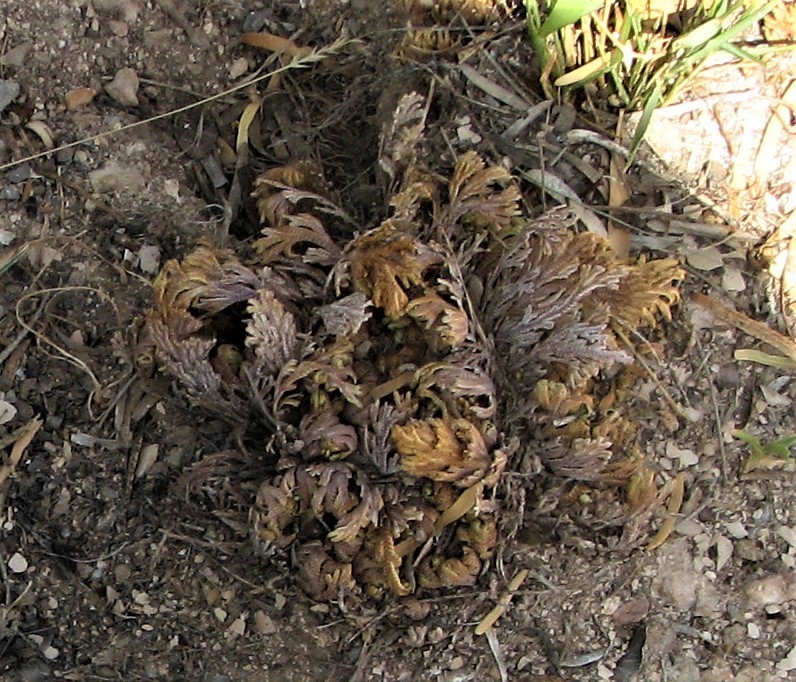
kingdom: Plantae
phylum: Tracheophyta
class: Lycopodiopsida
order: Selaginellales
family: Selaginellaceae
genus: Selaginella
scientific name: Selaginella lepidophylla
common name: Rose-of-jericho
